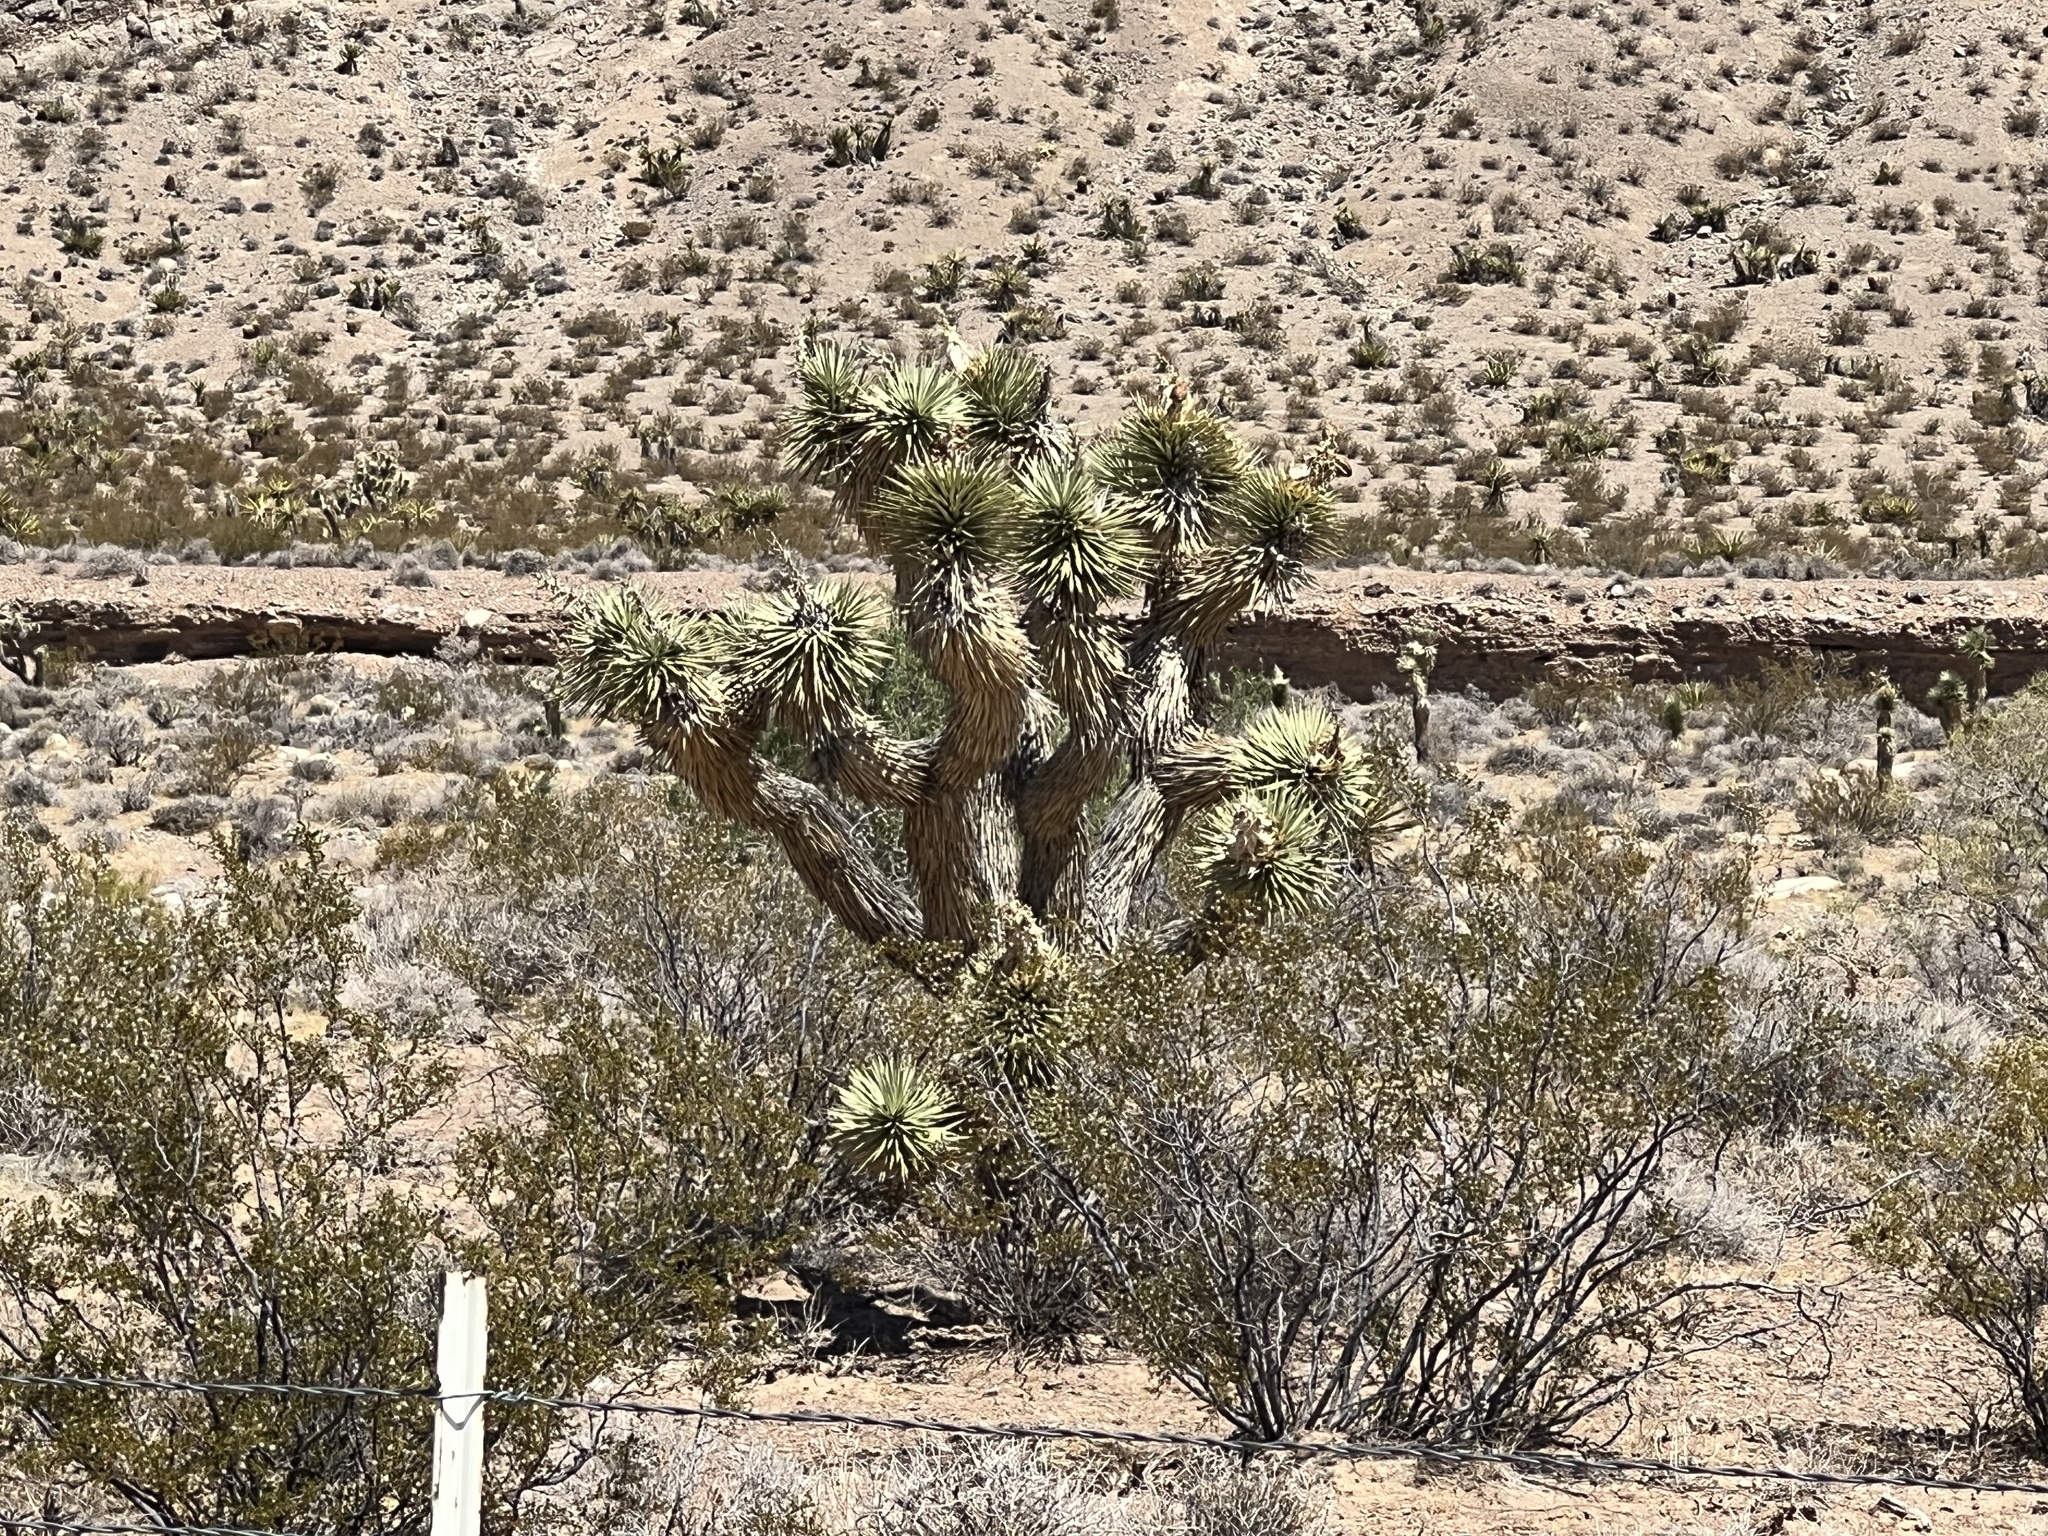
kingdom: Plantae
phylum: Tracheophyta
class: Liliopsida
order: Asparagales
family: Asparagaceae
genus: Yucca
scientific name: Yucca brevifolia
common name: Joshua tree
